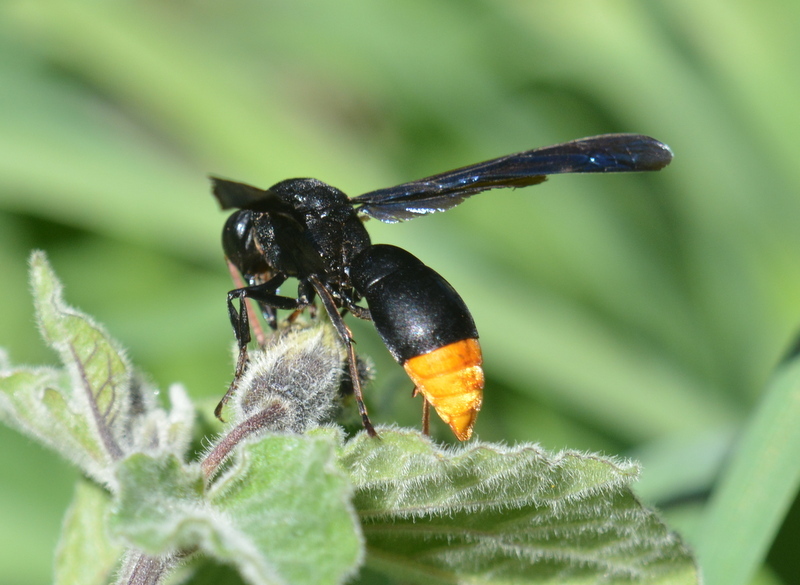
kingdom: Animalia
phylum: Arthropoda
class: Insecta
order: Hymenoptera
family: Vespidae
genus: Synagris
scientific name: Synagris analis
